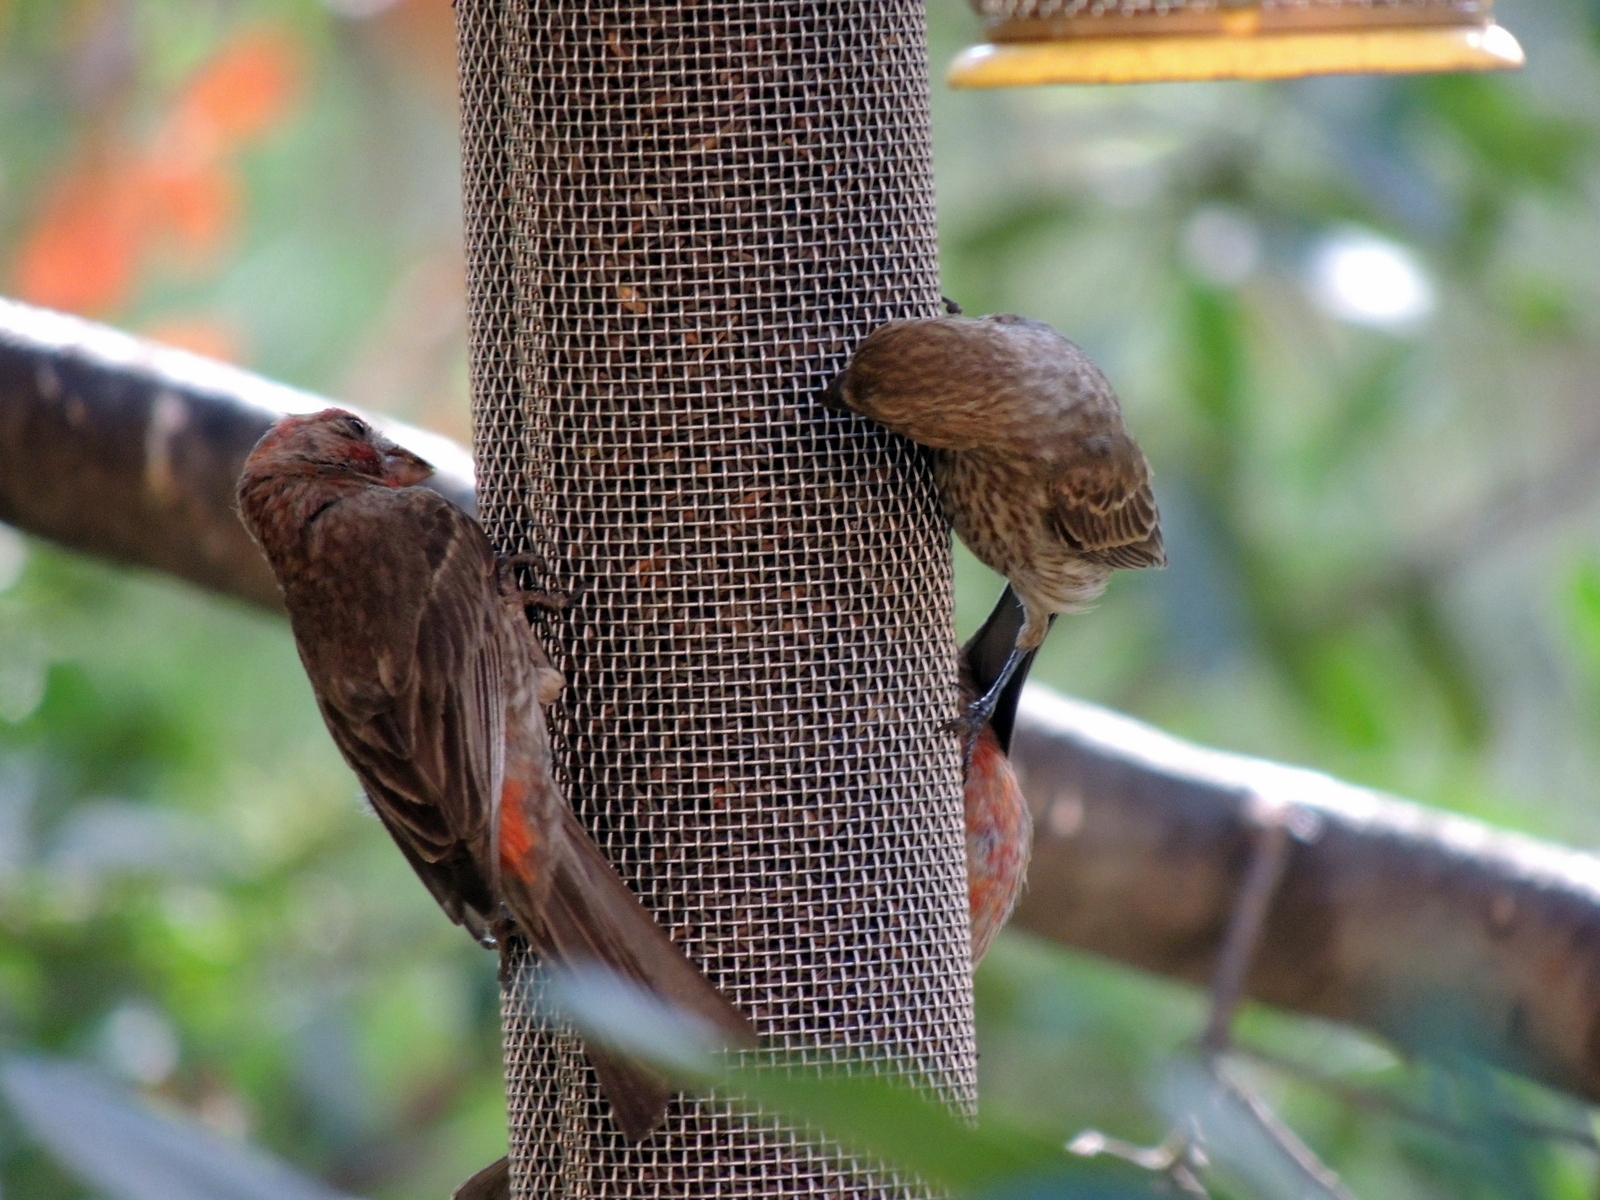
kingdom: Animalia
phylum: Chordata
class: Aves
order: Passeriformes
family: Fringillidae
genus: Haemorhous
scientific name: Haemorhous mexicanus
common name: House finch
